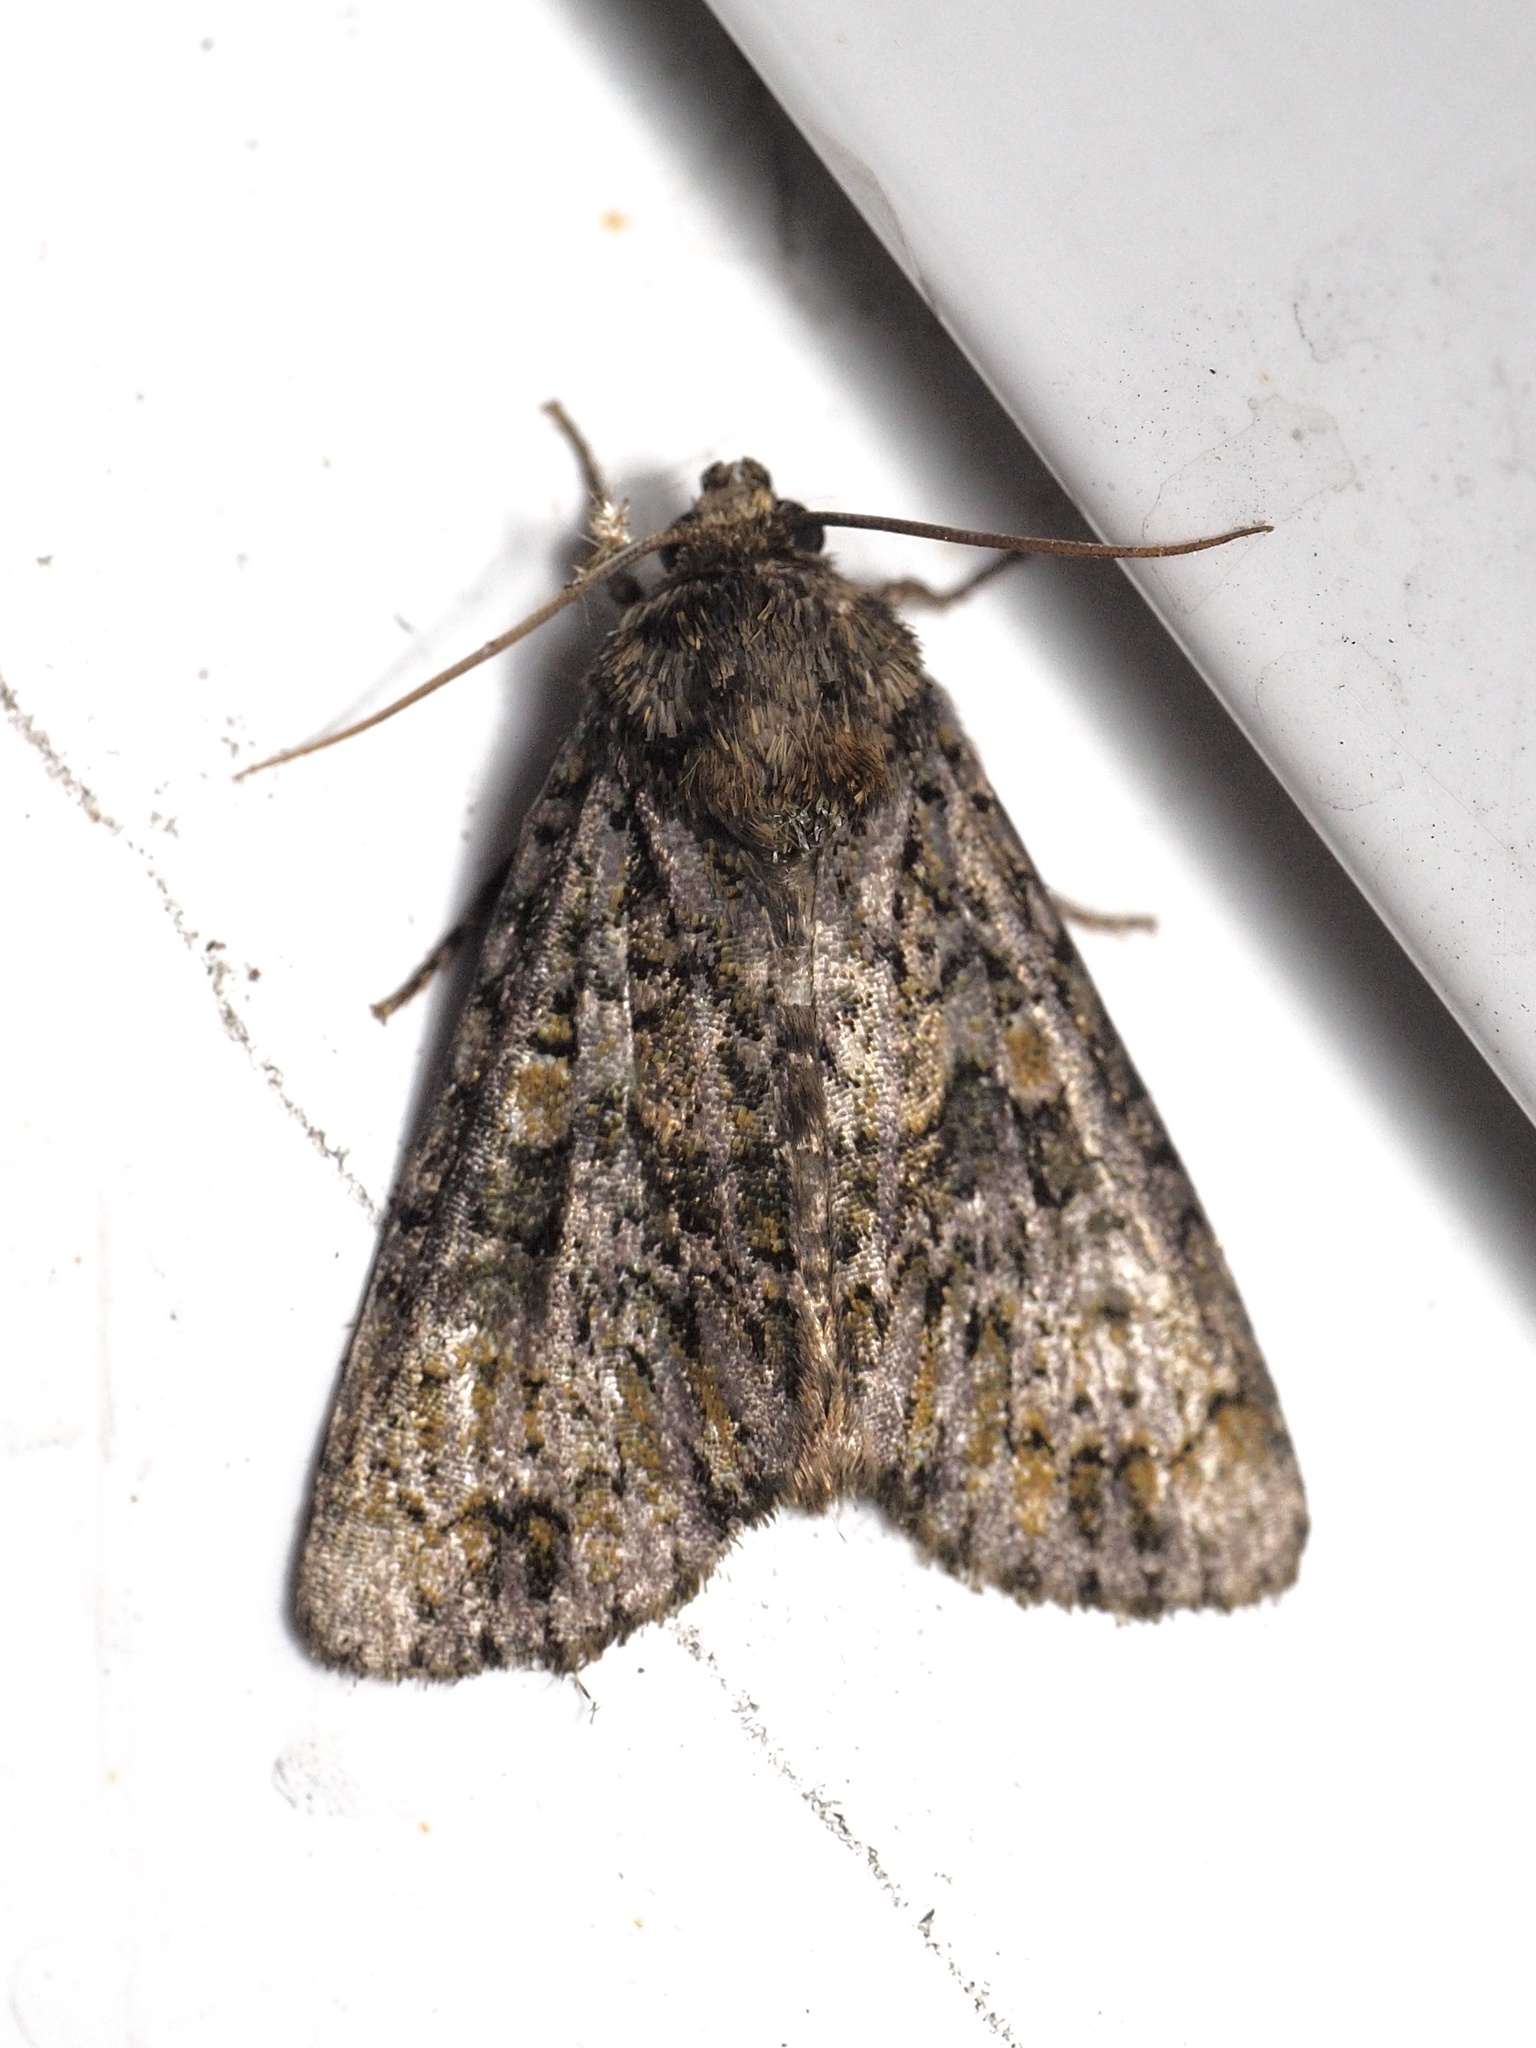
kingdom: Animalia
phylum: Arthropoda
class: Insecta
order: Lepidoptera
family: Noctuidae
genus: Craniophora
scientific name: Craniophora ligustri
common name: Coronet
